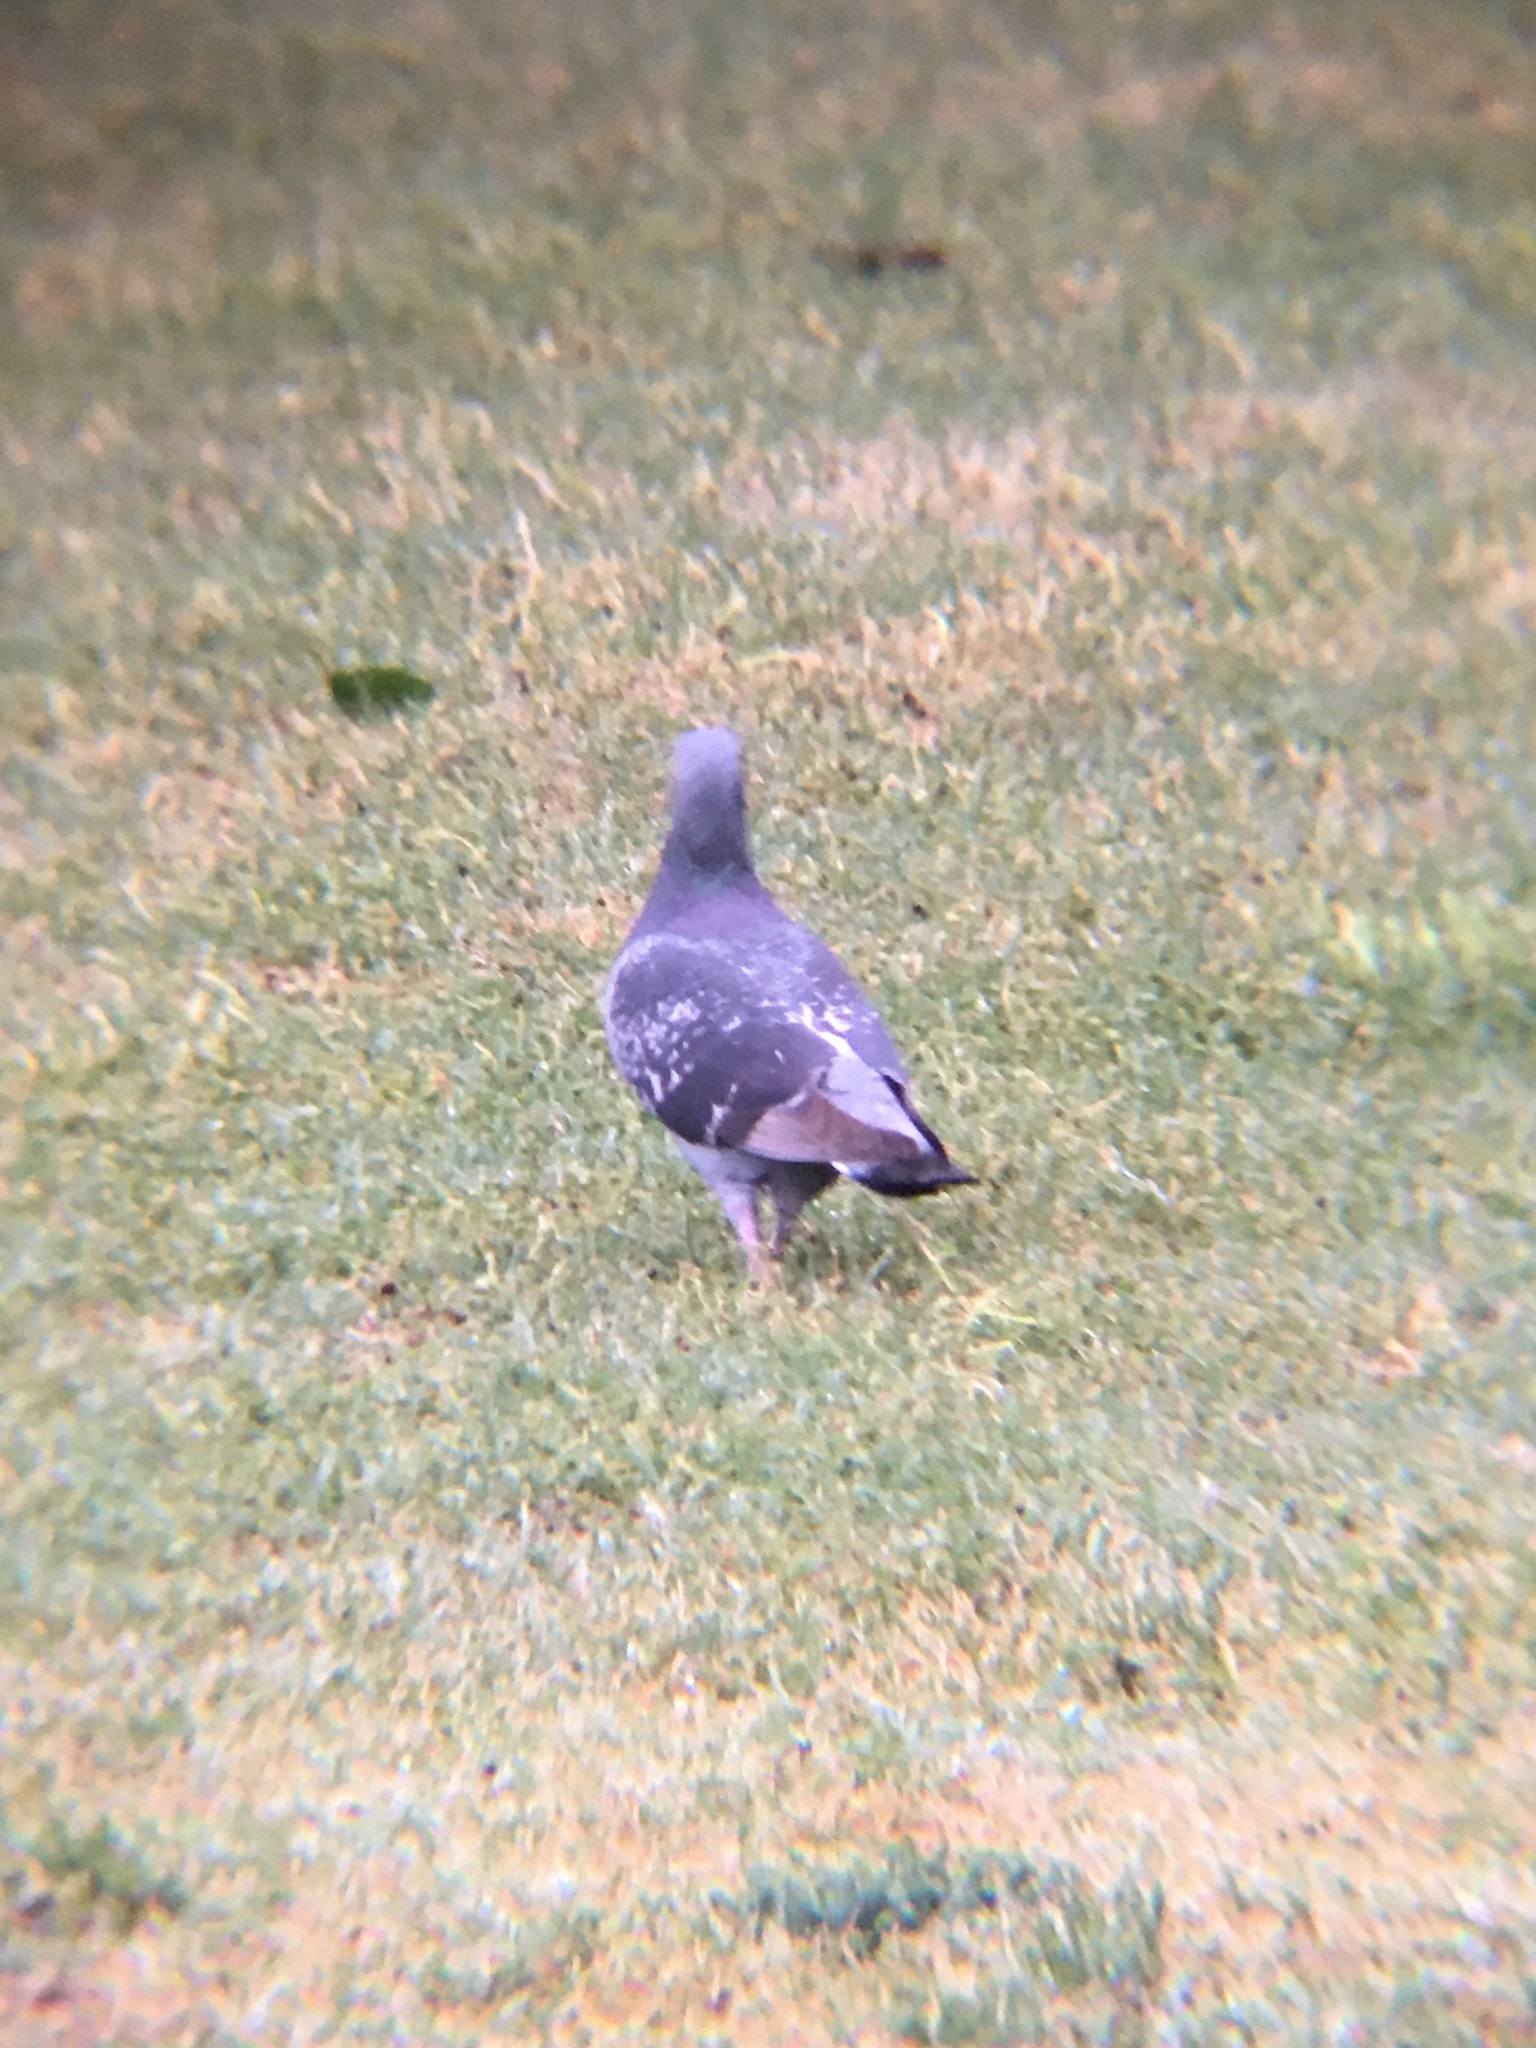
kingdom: Animalia
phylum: Chordata
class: Aves
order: Columbiformes
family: Columbidae
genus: Columba
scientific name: Columba livia
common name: Rock pigeon
